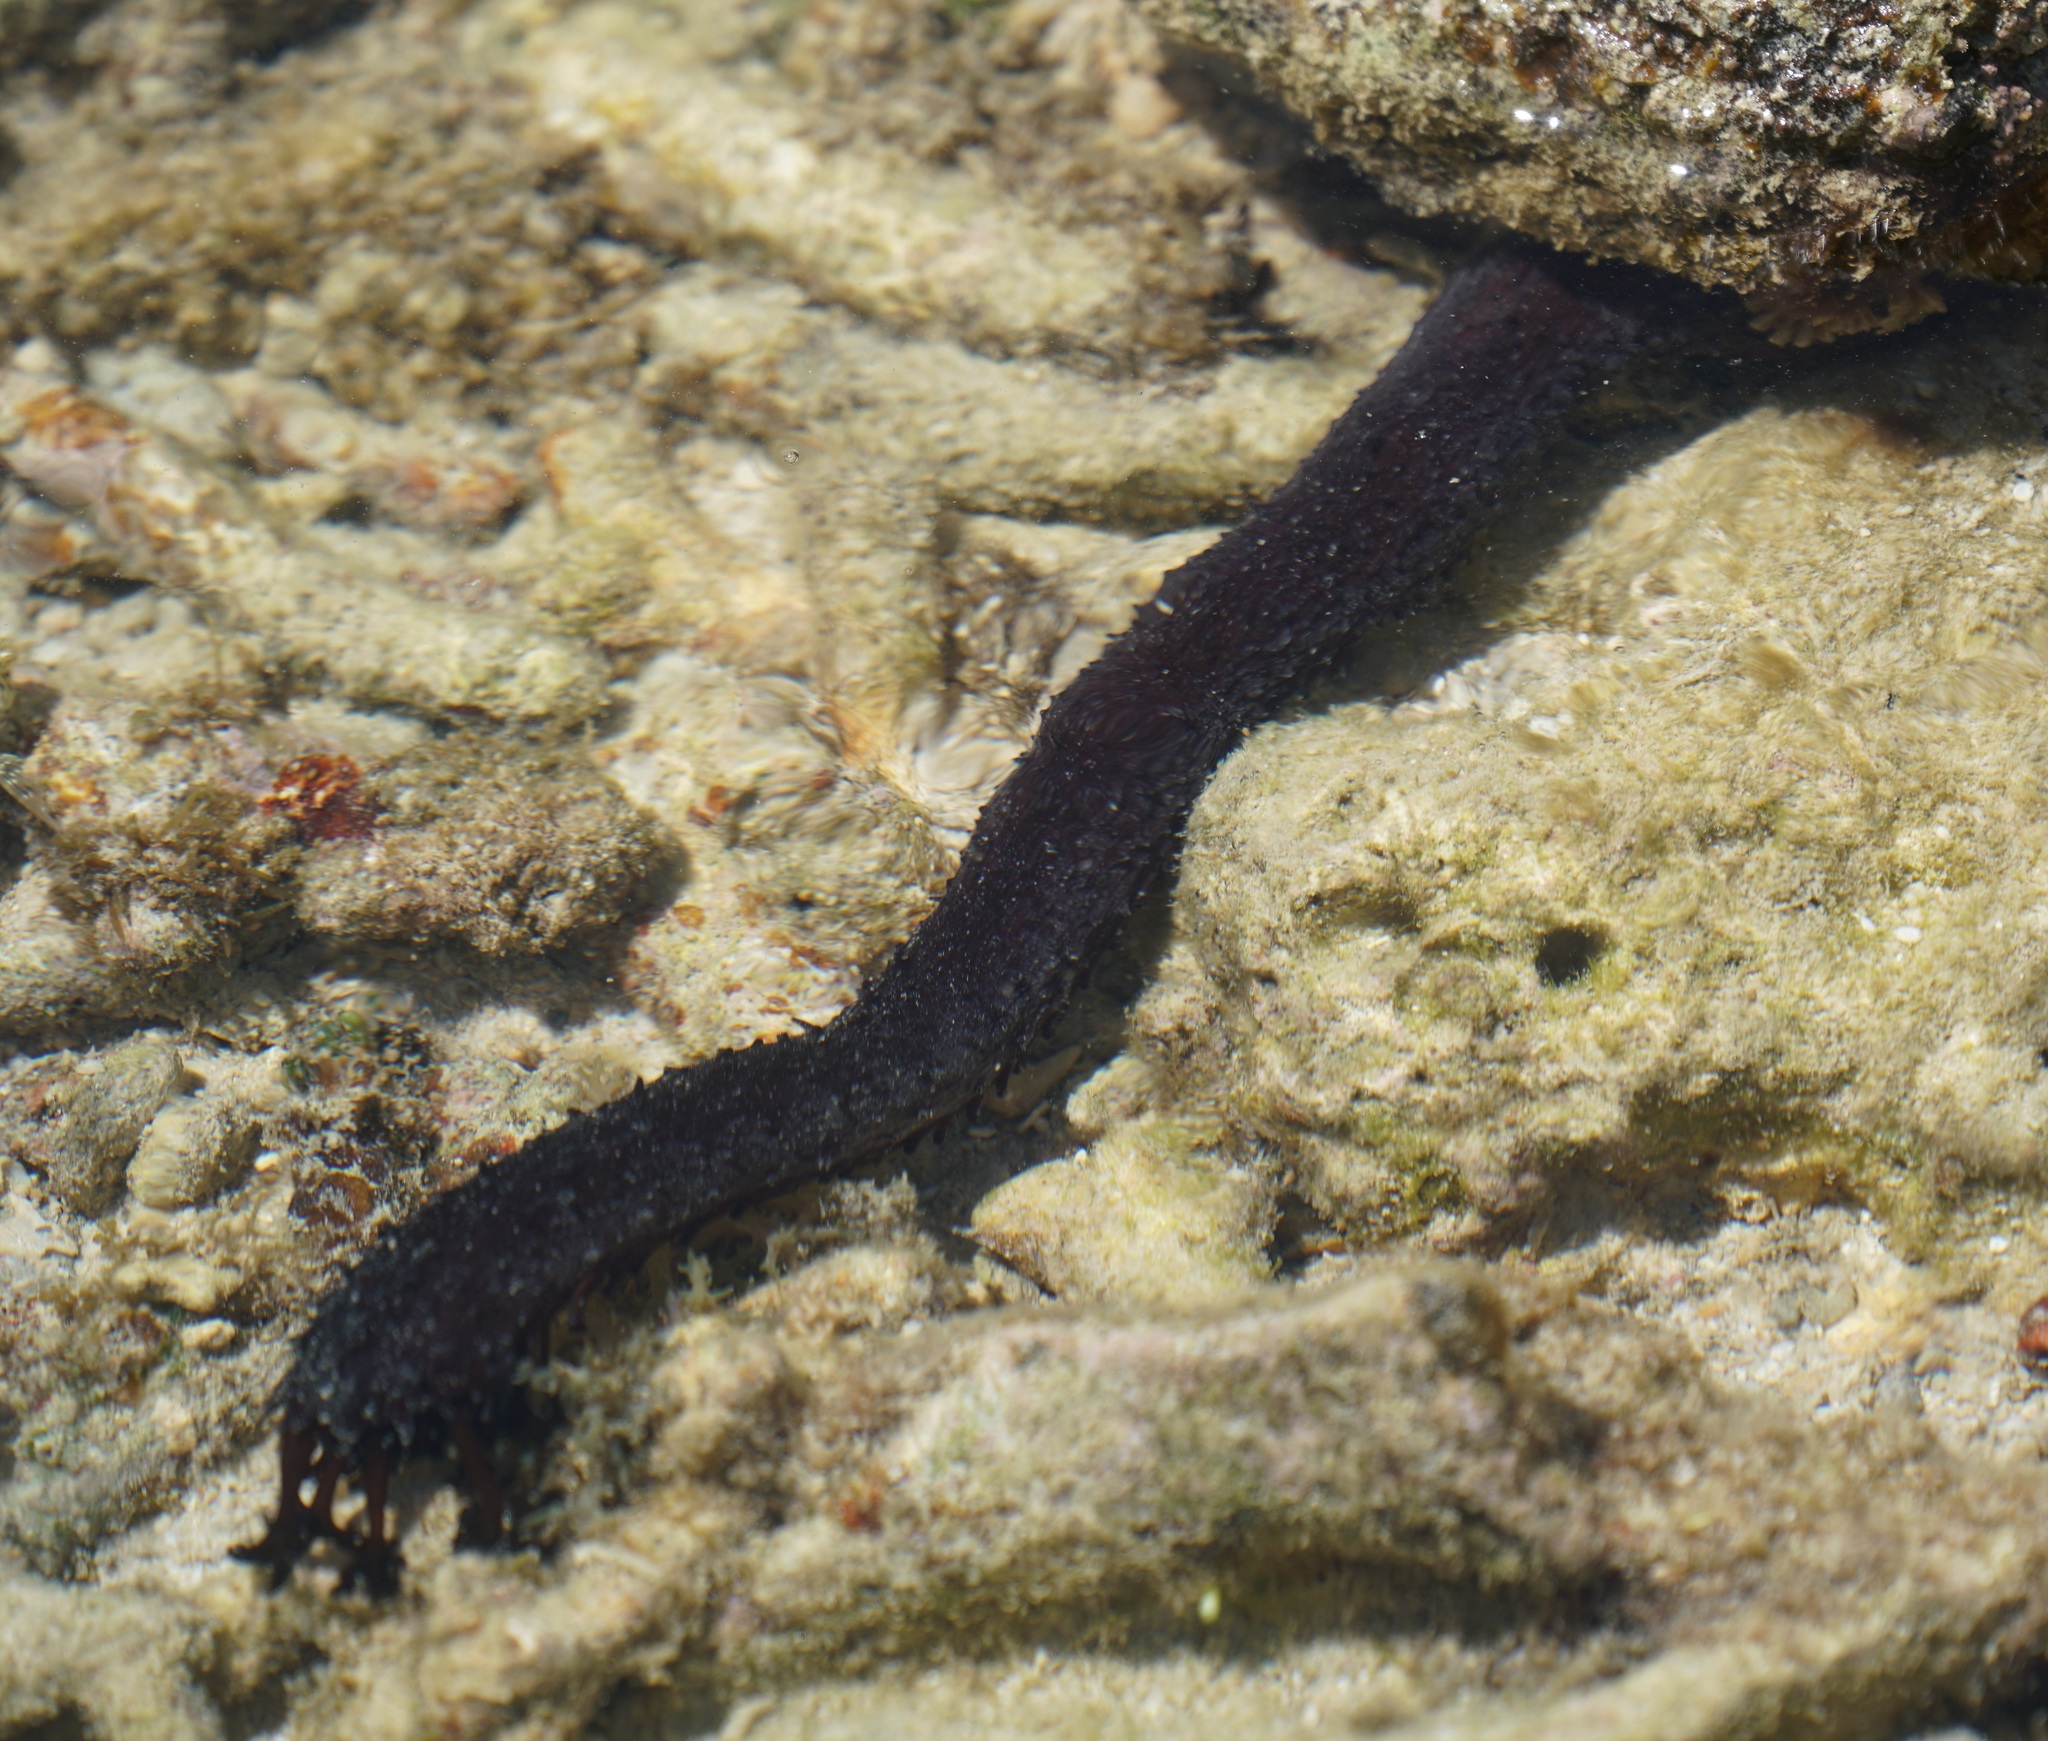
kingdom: Animalia
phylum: Echinodermata
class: Holothuroidea
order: Holothuriida
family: Holothuriidae
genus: Holothuria
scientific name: Holothuria leucospilota
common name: White thread fish
